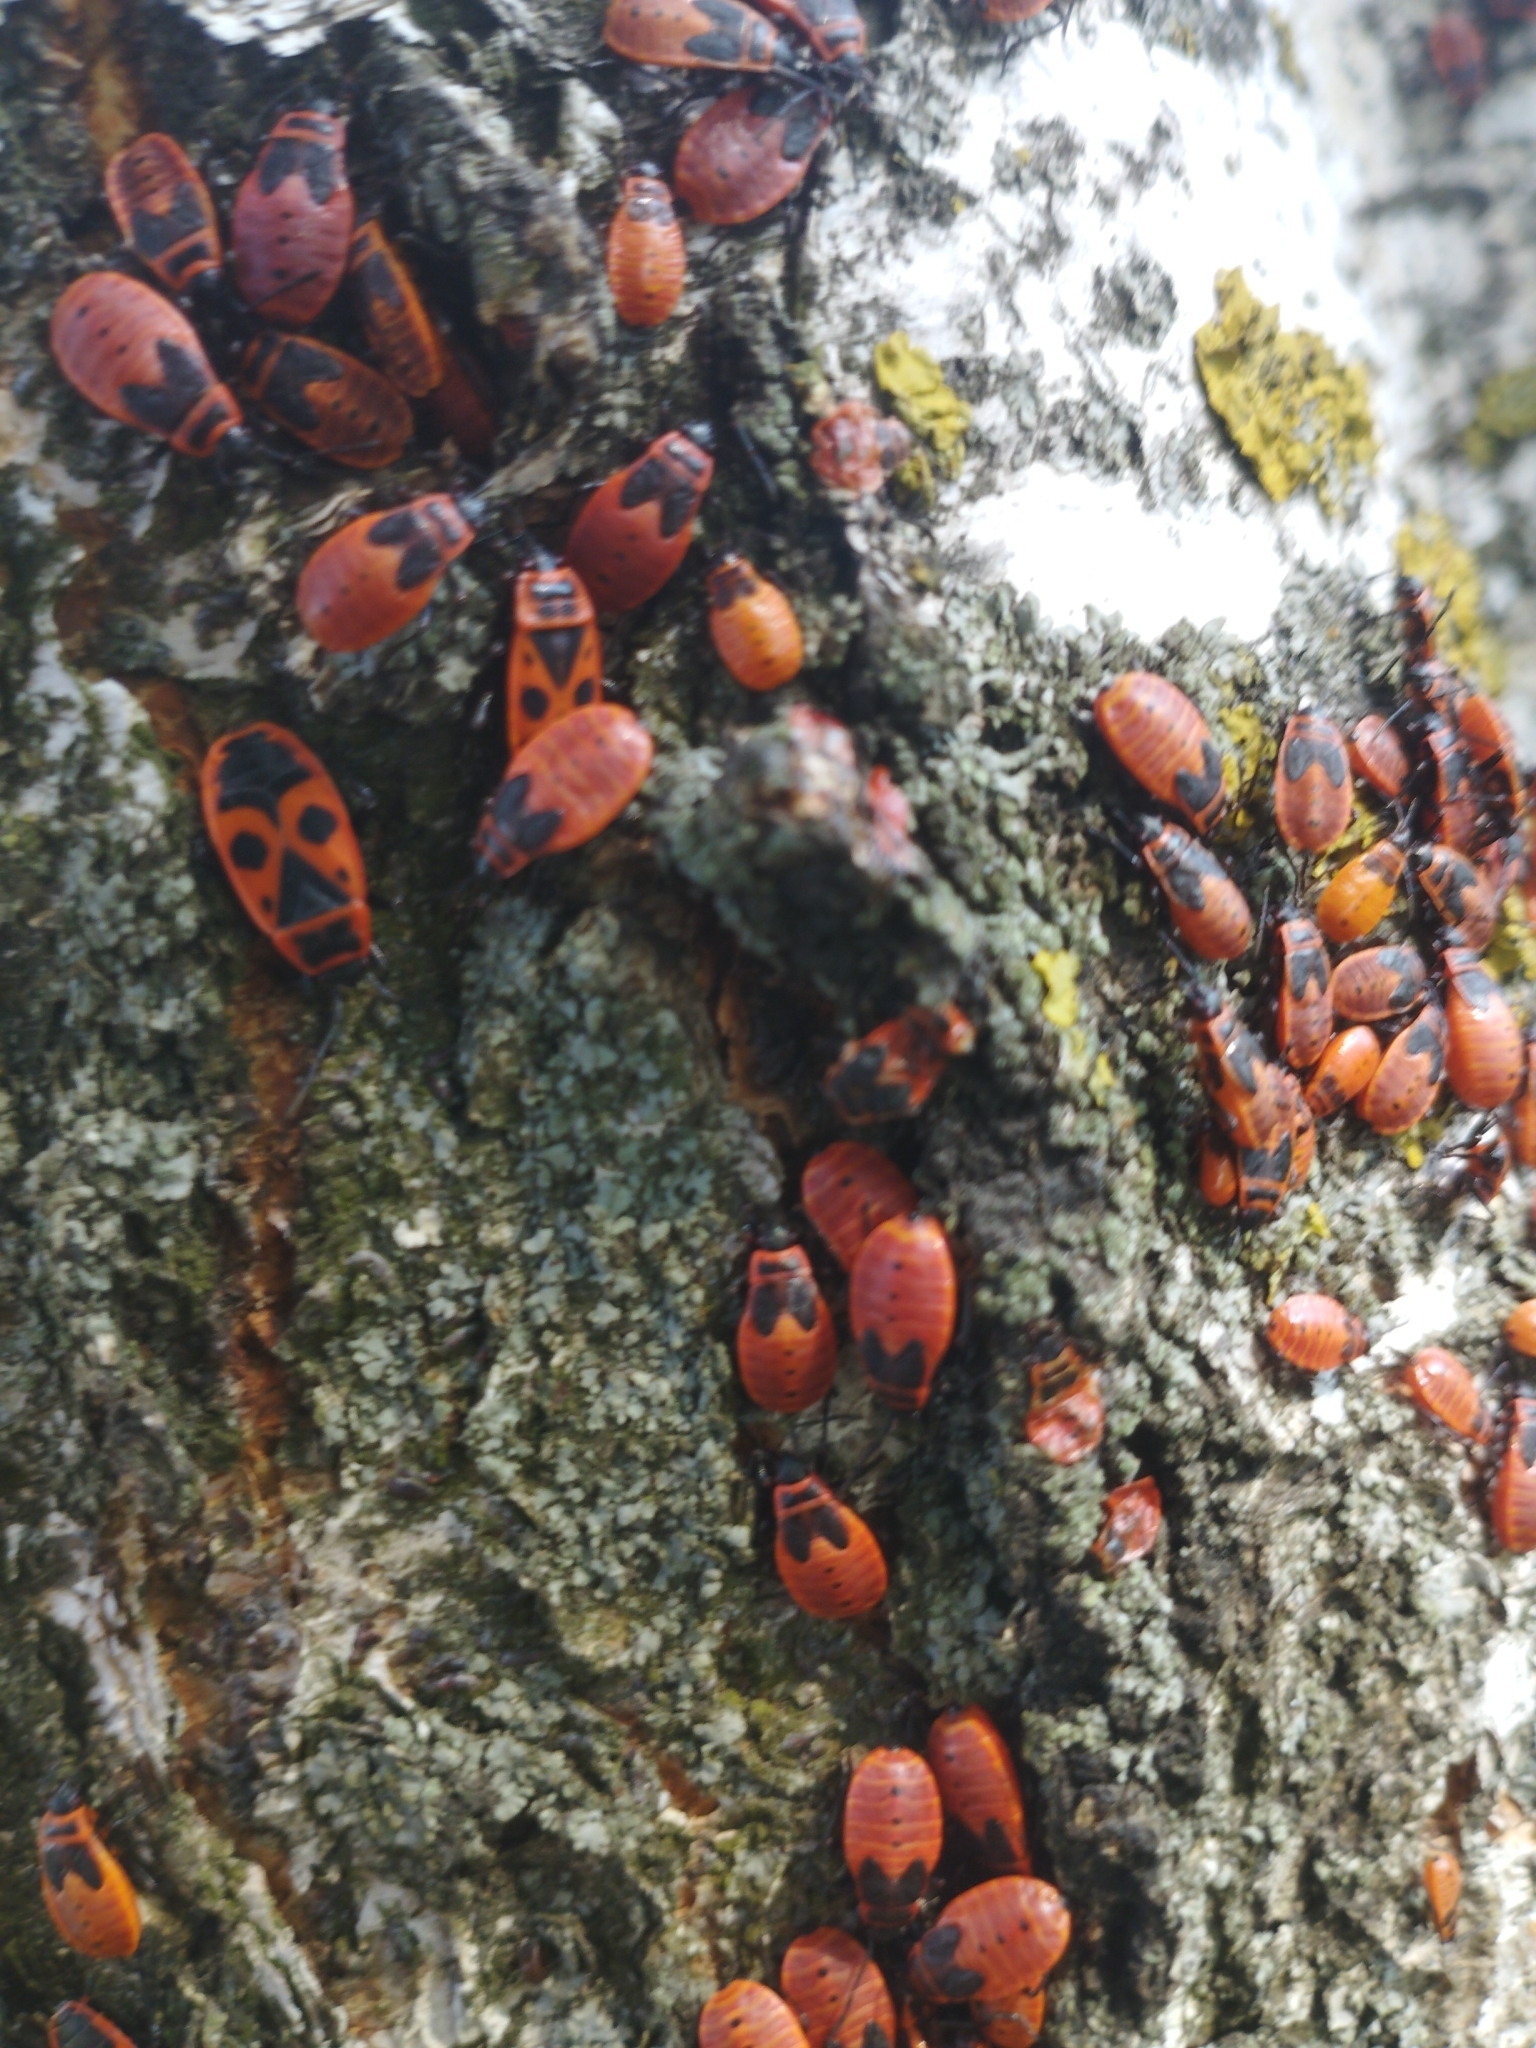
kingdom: Animalia
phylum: Arthropoda
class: Insecta
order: Hemiptera
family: Pyrrhocoridae
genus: Pyrrhocoris
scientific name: Pyrrhocoris apterus
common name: Firebug
